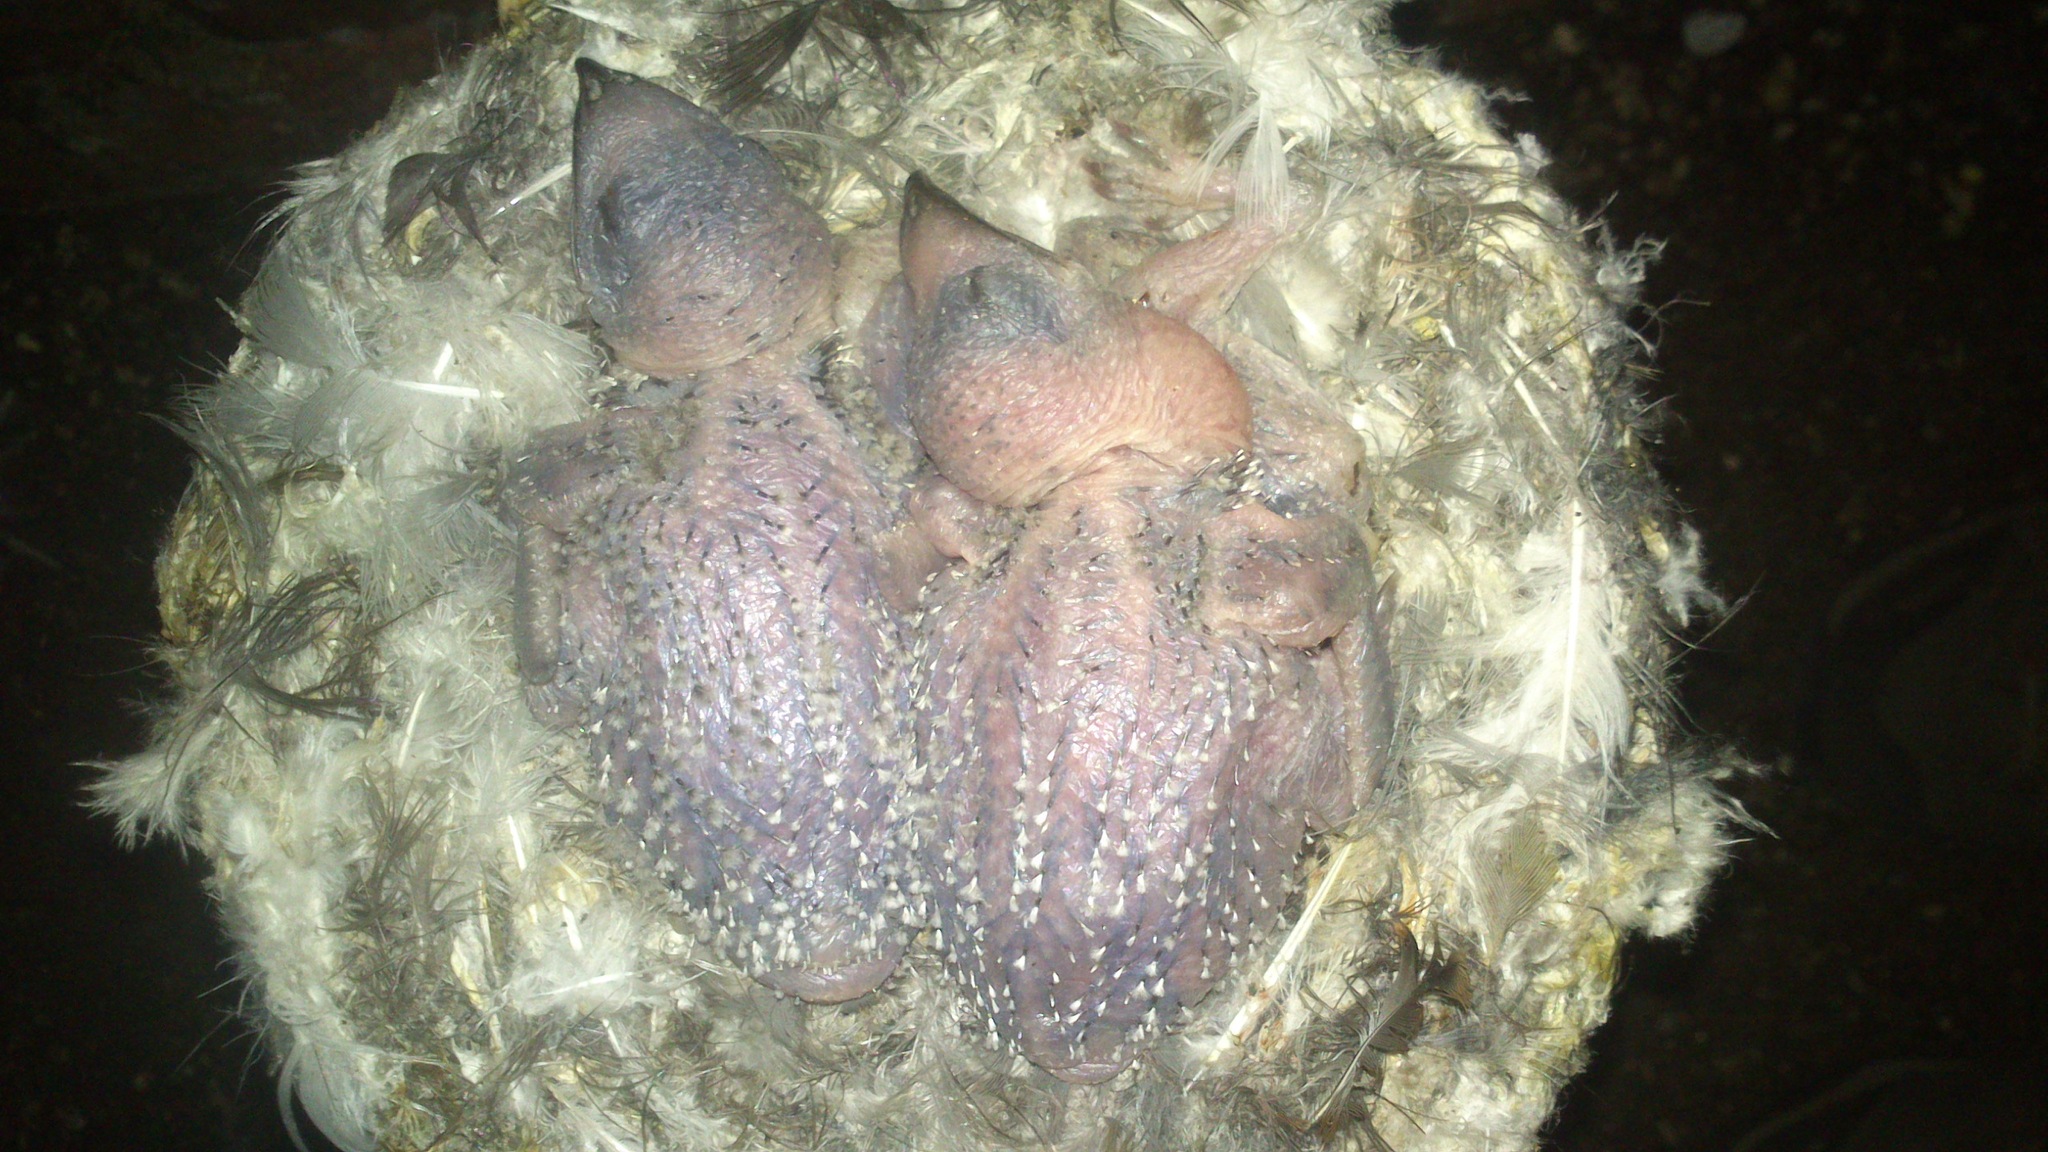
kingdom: Animalia
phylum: Chordata
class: Aves
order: Apodiformes
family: Apodidae
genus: Tachymarptis
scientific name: Tachymarptis melba
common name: Alpine swift
